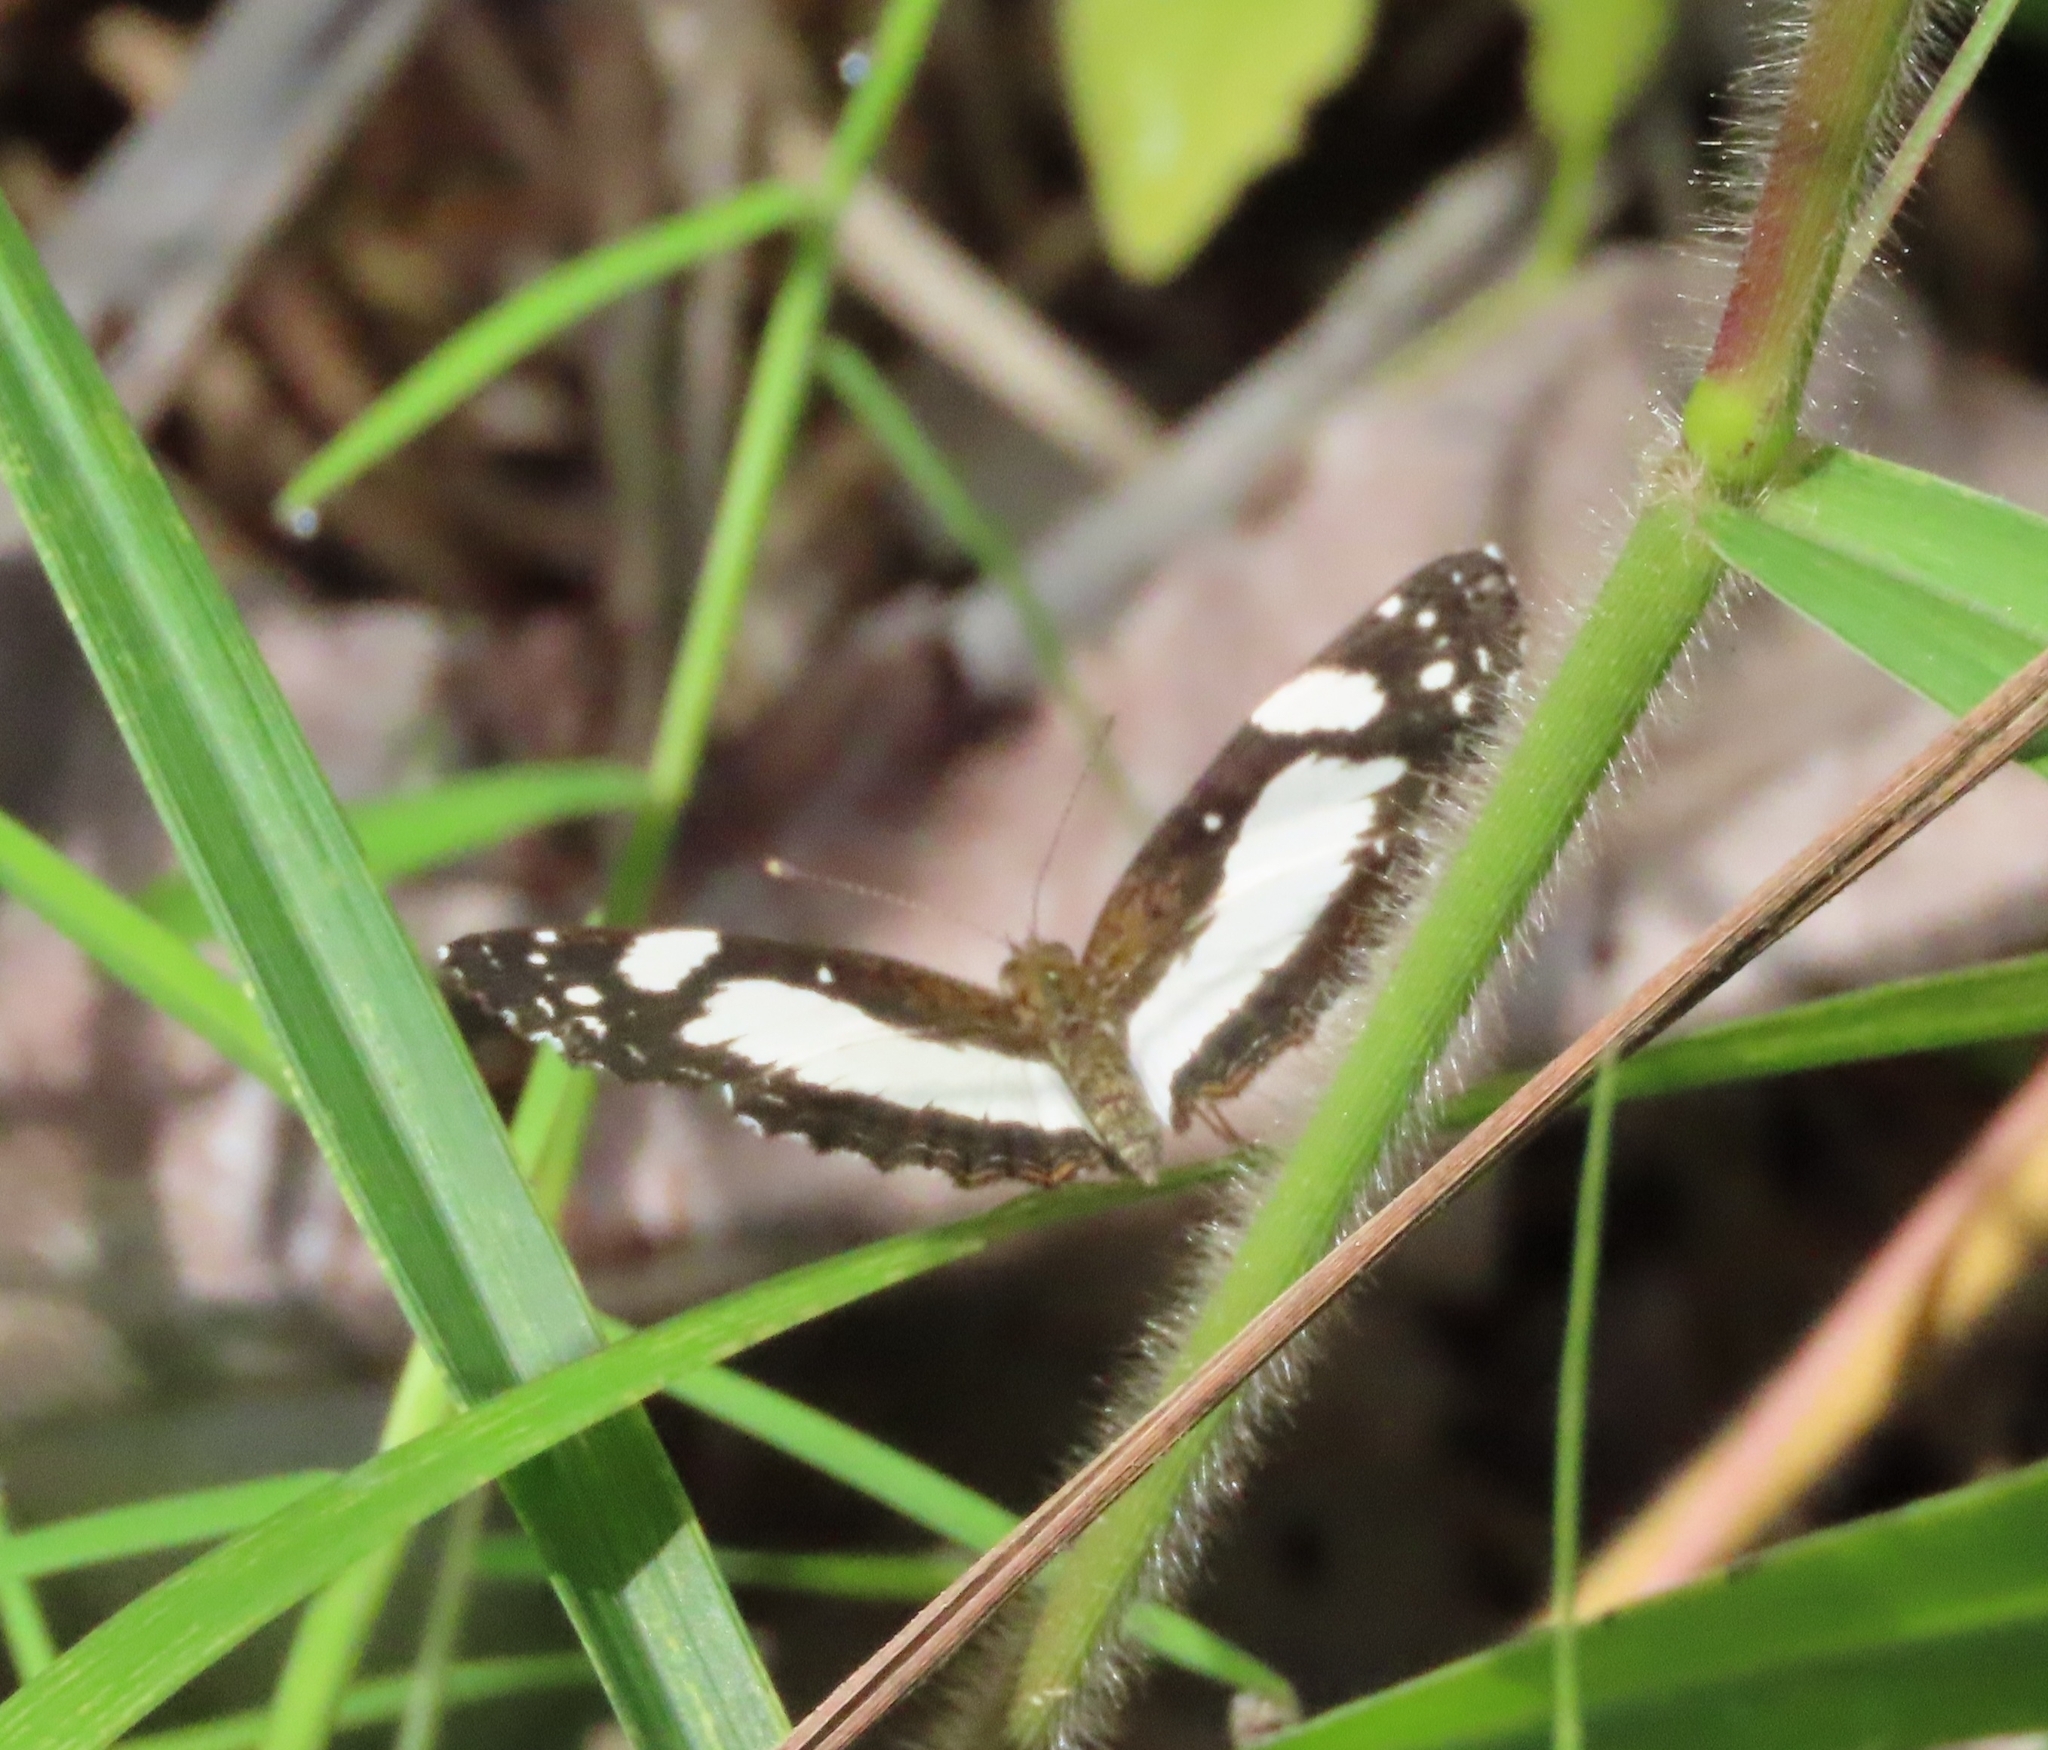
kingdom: Animalia
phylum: Arthropoda
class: Insecta
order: Lepidoptera
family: Nymphalidae
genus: Janatella
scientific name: Janatella leucodesma
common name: Whitened crescent
